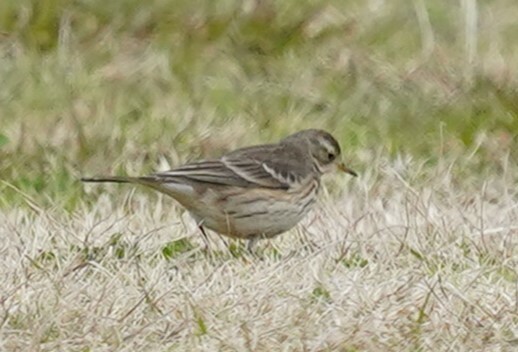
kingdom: Animalia
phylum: Chordata
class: Aves
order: Passeriformes
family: Motacillidae
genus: Anthus
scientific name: Anthus rubescens
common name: Buff-bellied pipit
